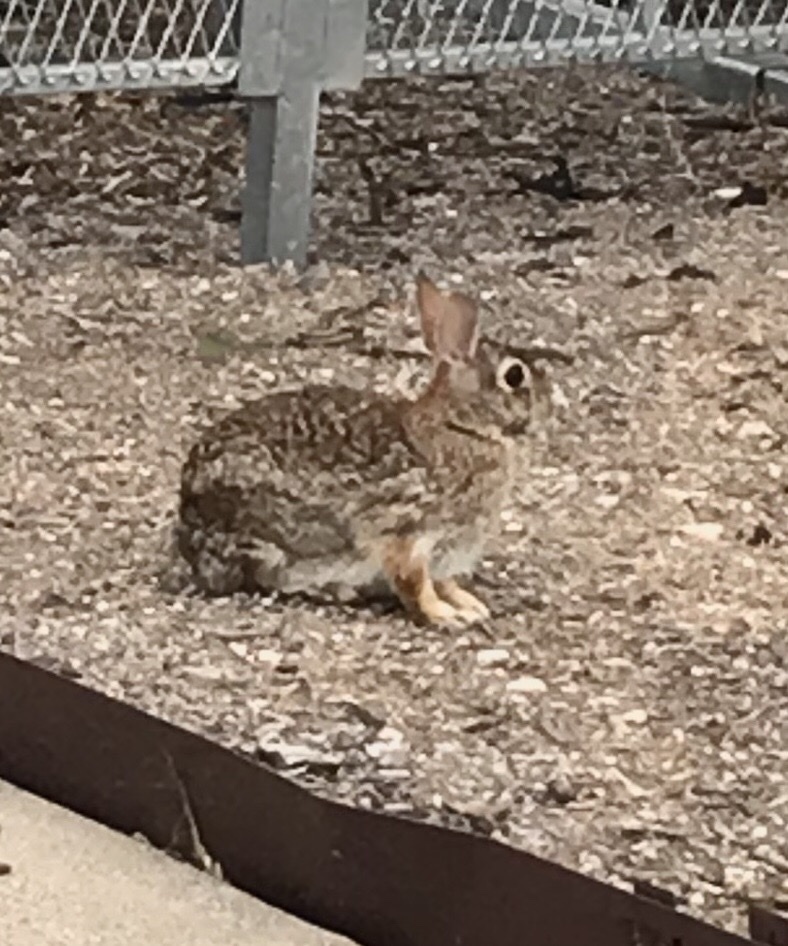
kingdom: Animalia
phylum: Chordata
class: Mammalia
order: Lagomorpha
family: Leporidae
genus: Sylvilagus
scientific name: Sylvilagus floridanus
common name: Eastern cottontail
